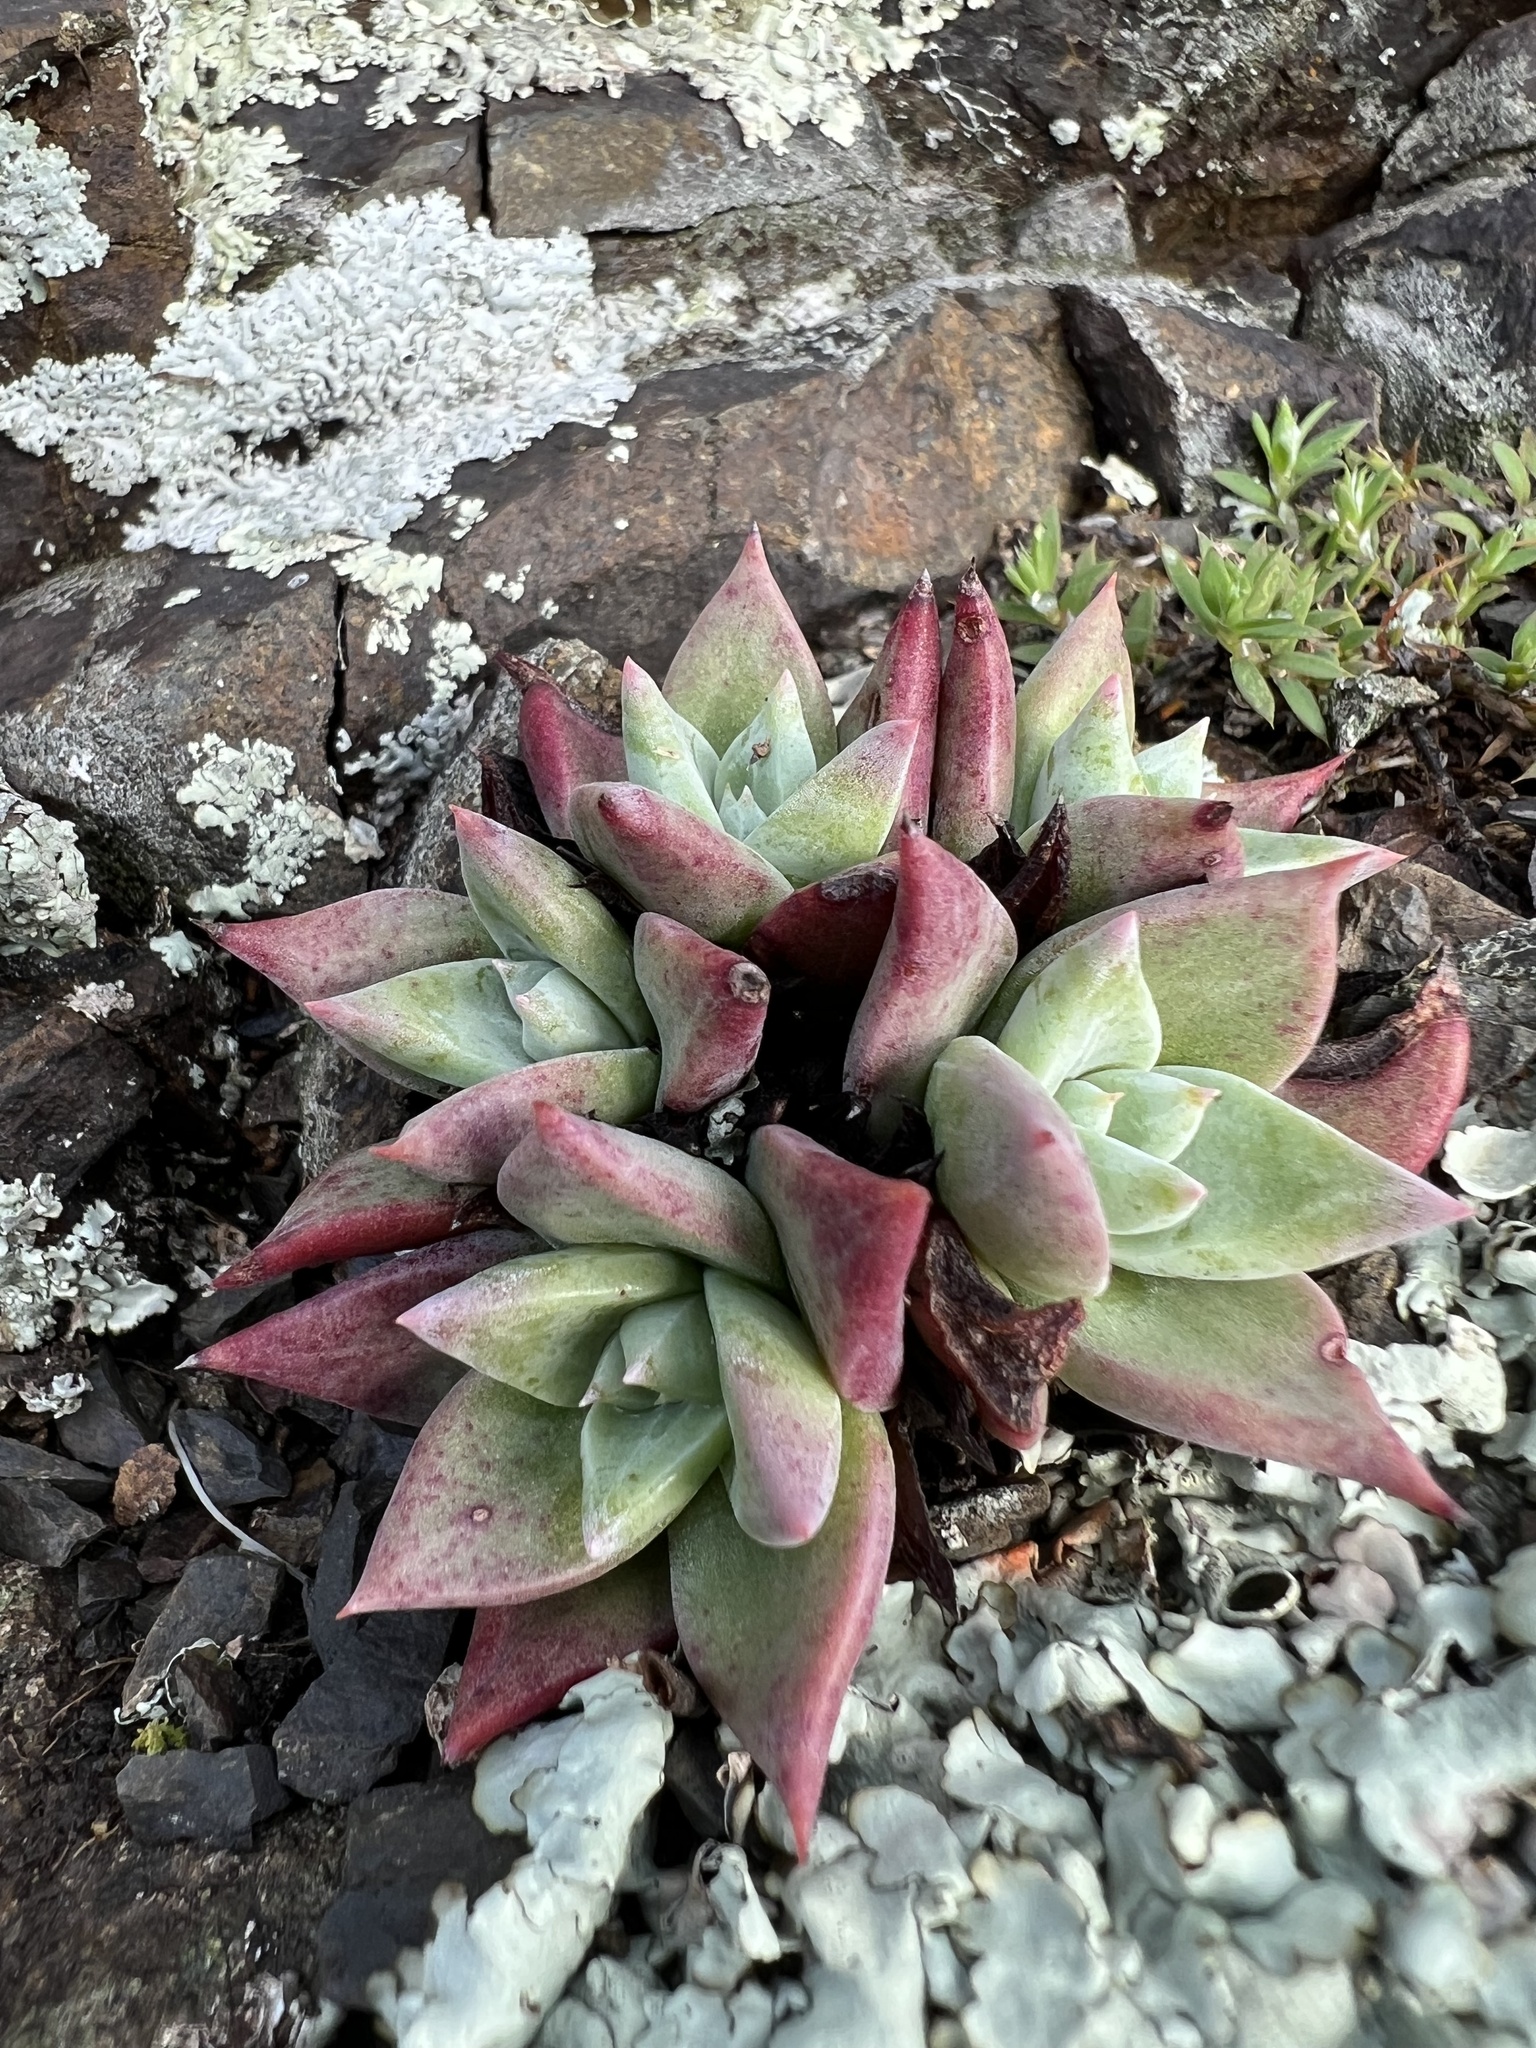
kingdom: Plantae
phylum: Tracheophyta
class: Magnoliopsida
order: Saxifragales
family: Crassulaceae
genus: Dudleya
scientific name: Dudleya farinosa
